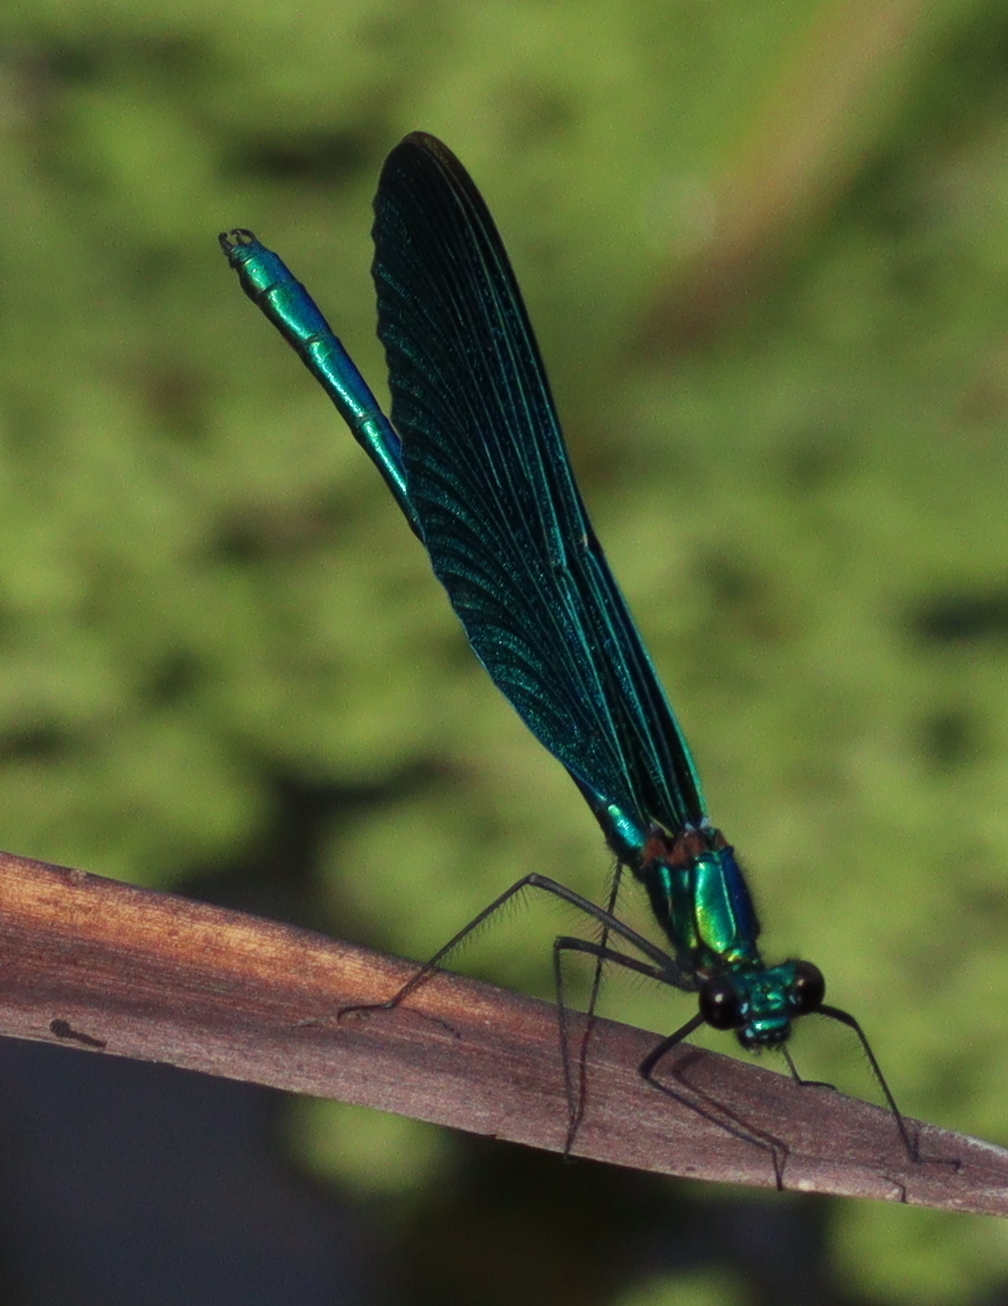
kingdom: Animalia
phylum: Arthropoda
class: Insecta
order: Odonata
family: Calopterygidae
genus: Calopteryx
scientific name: Calopteryx virgo
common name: Beautiful demoiselle
